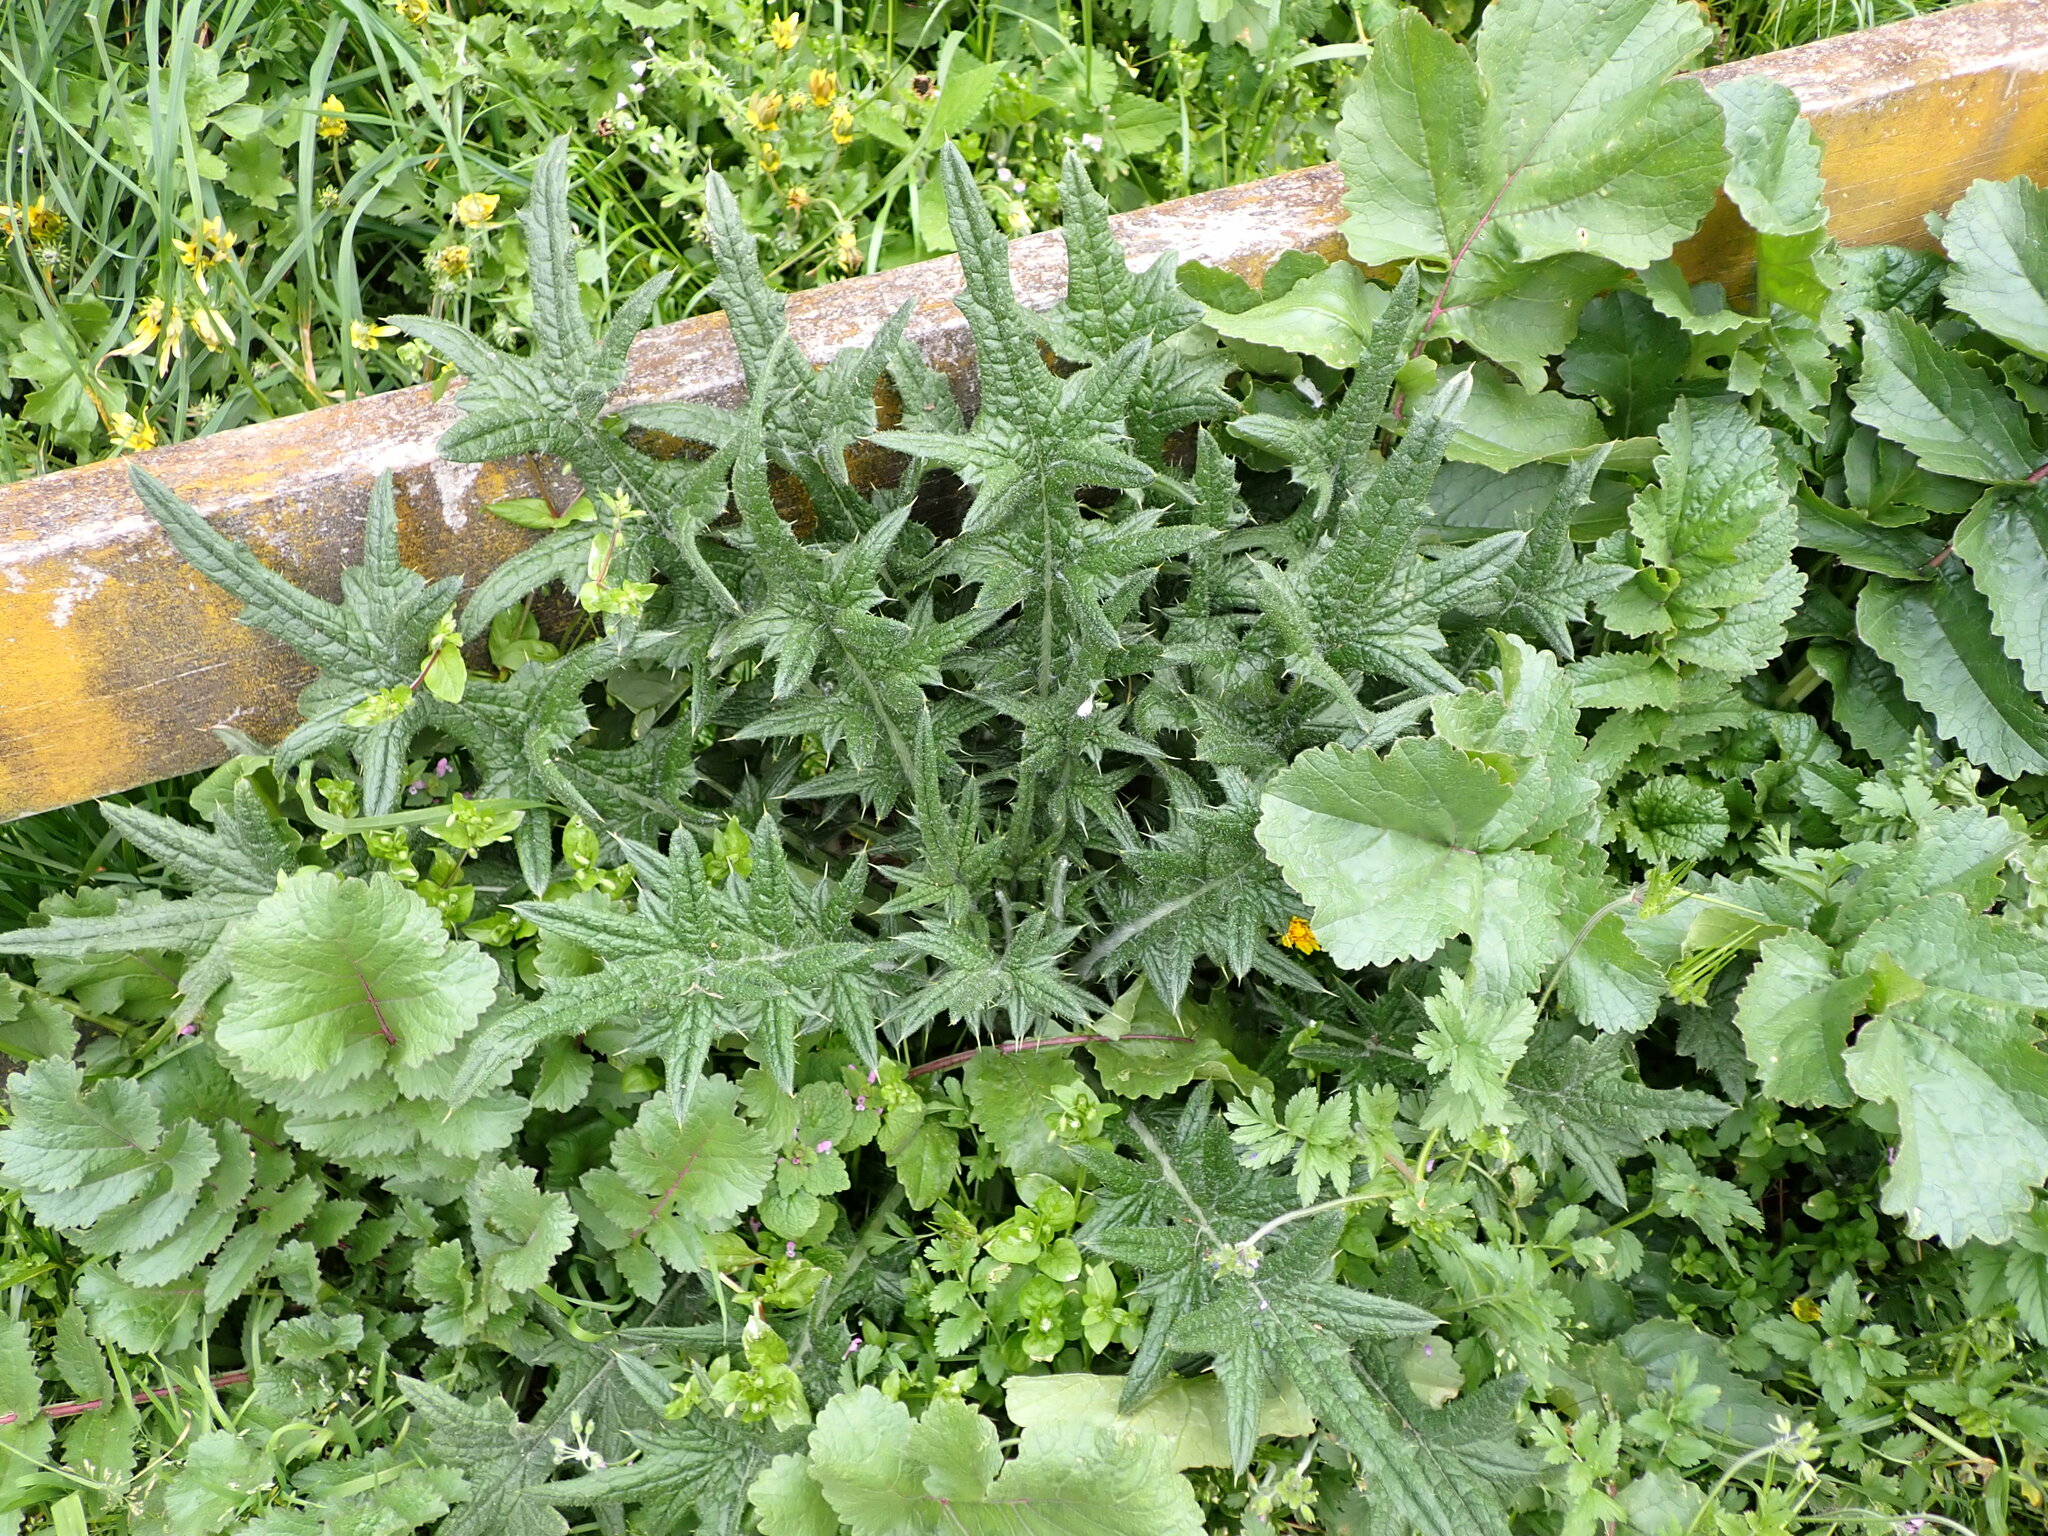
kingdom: Plantae
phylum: Tracheophyta
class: Magnoliopsida
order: Asterales
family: Asteraceae
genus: Cirsium
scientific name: Cirsium vulgare
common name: Bull thistle
